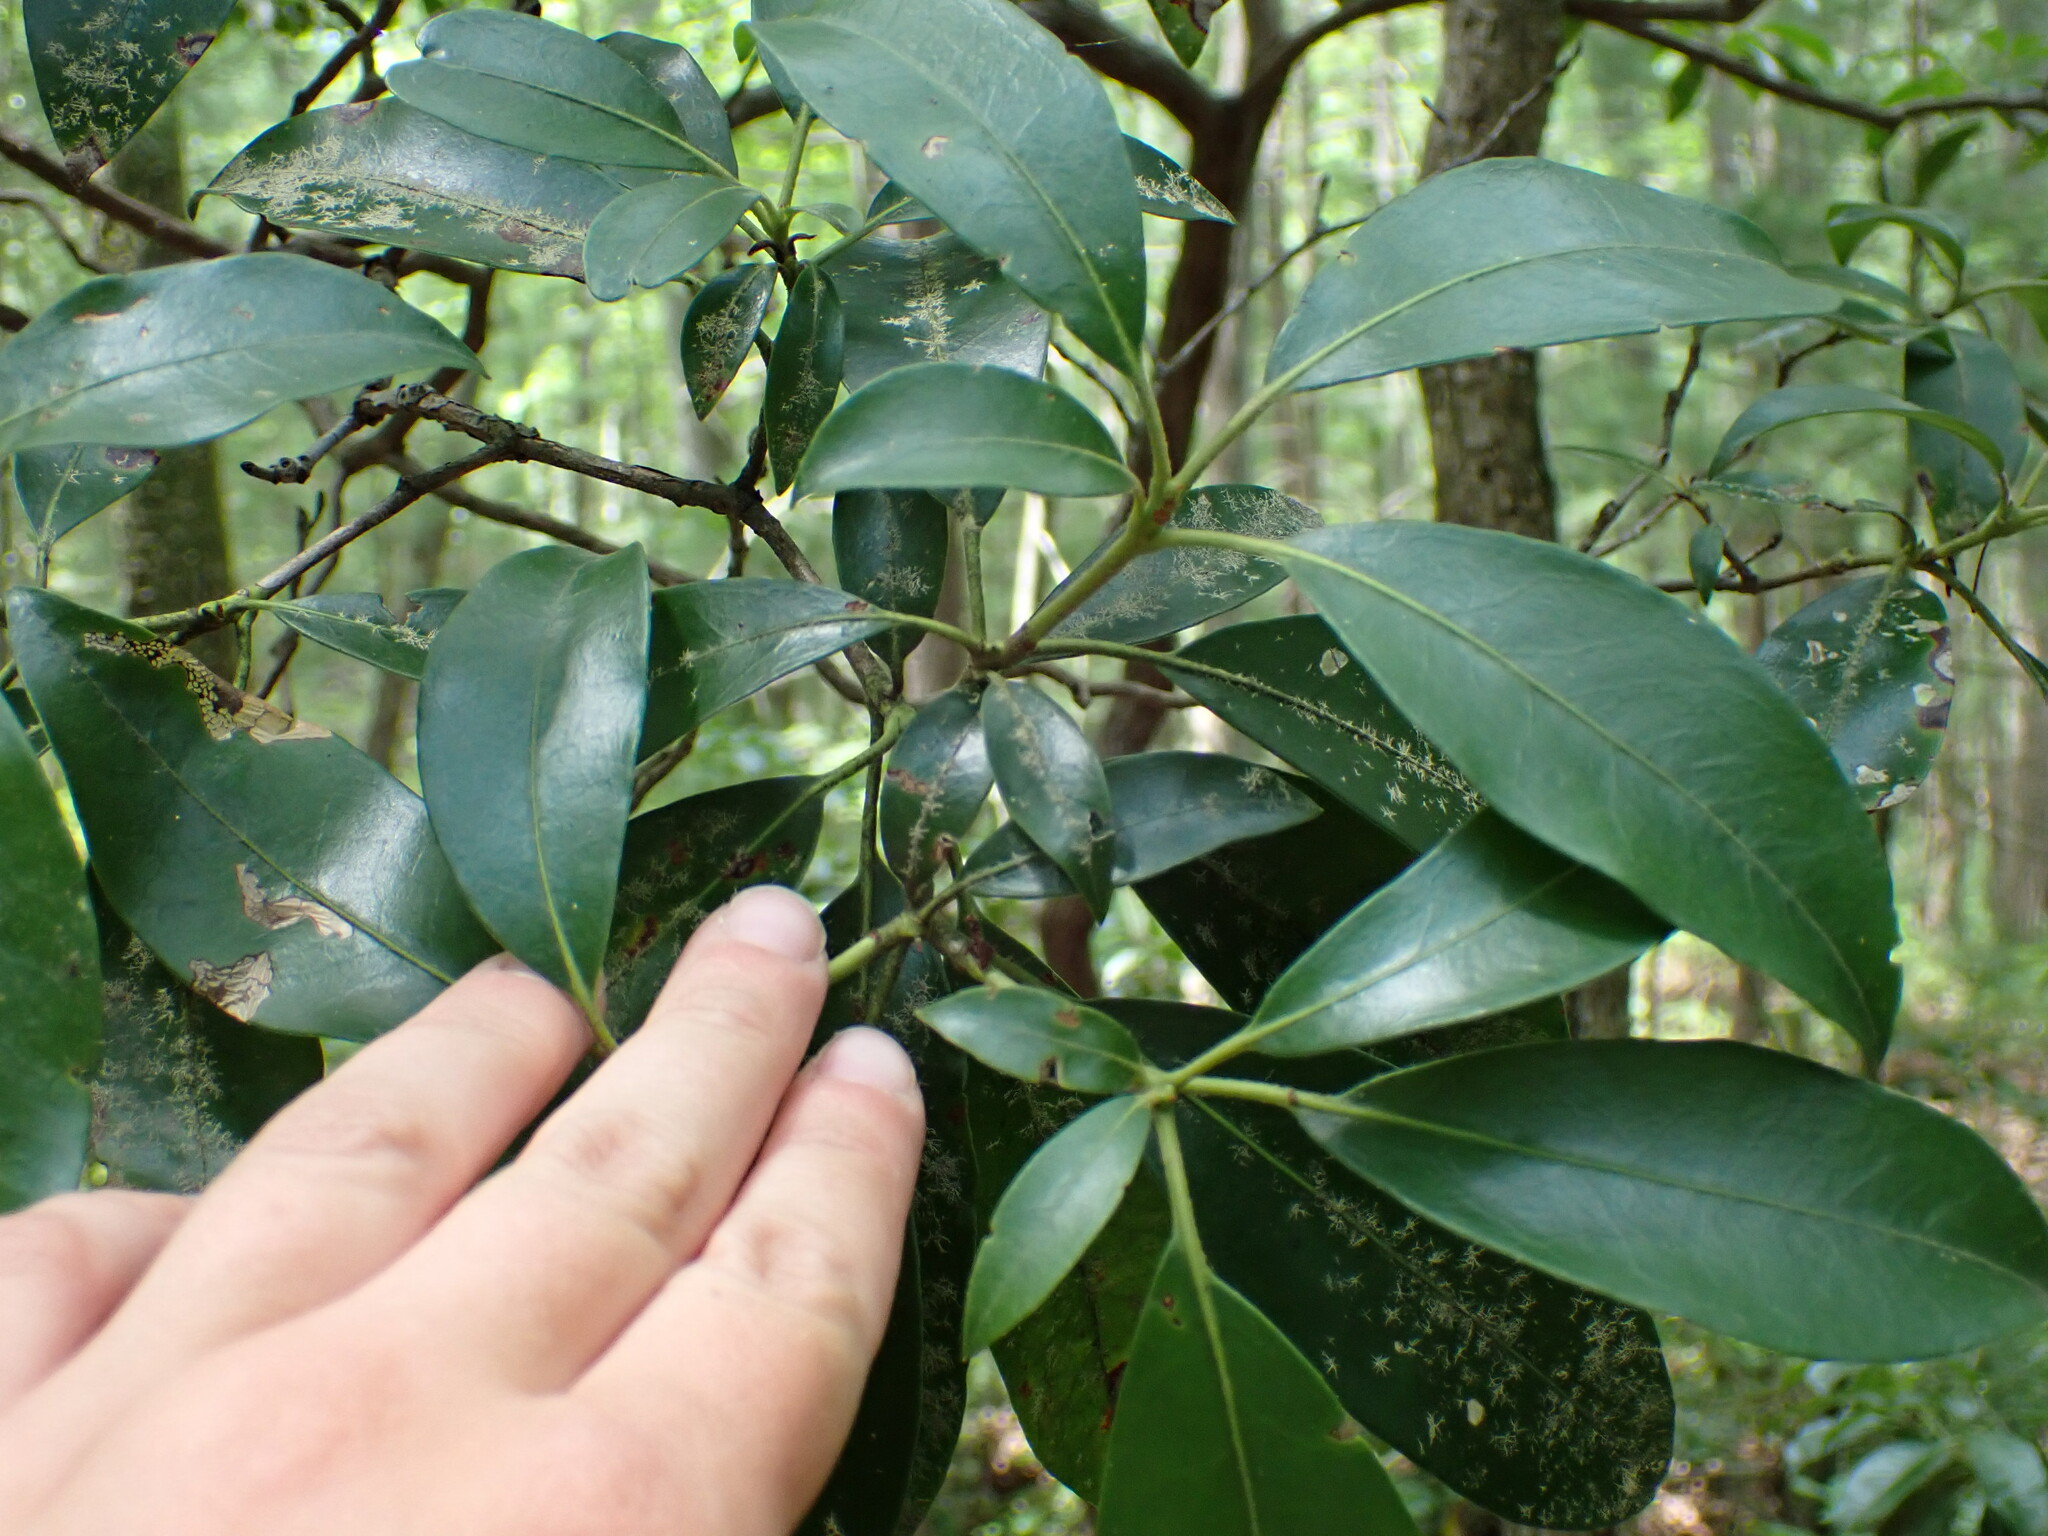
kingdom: Plantae
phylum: Tracheophyta
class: Magnoliopsida
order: Ericales
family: Ericaceae
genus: Kalmia
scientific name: Kalmia latifolia
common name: Mountain-laurel
